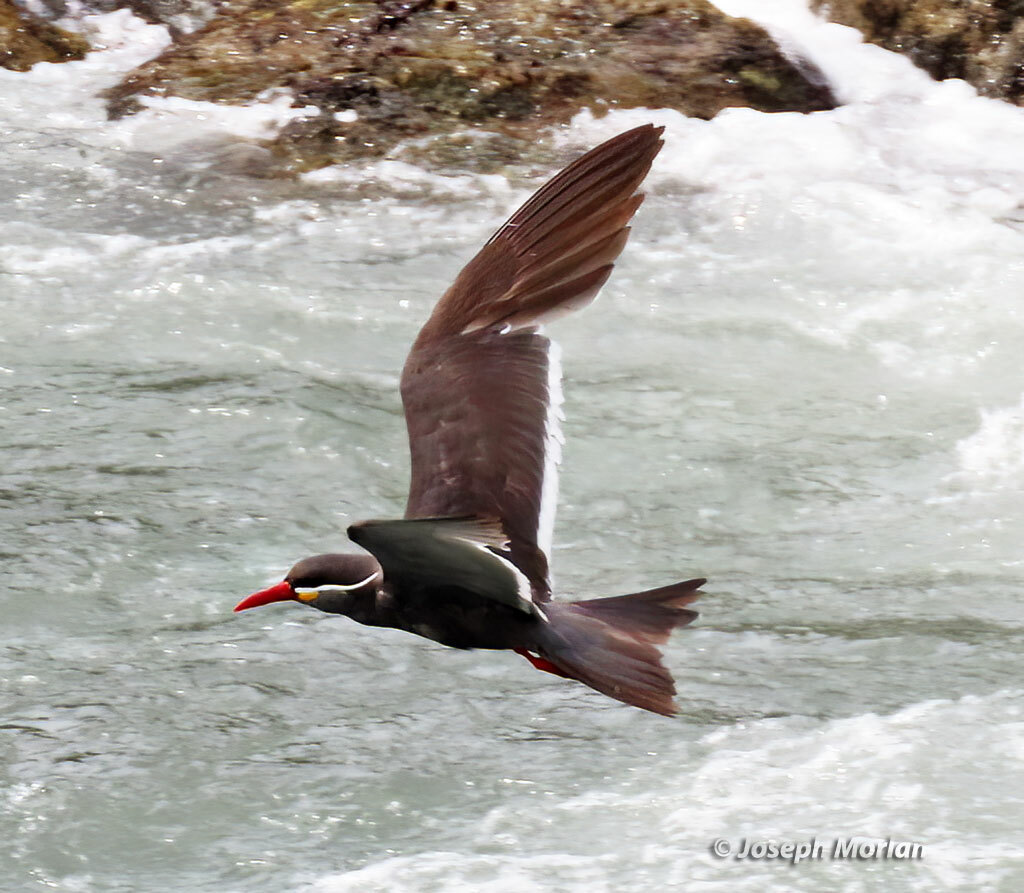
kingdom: Animalia
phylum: Chordata
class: Aves
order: Charadriiformes
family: Laridae
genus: Larosterna
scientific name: Larosterna inca
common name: Inca tern
